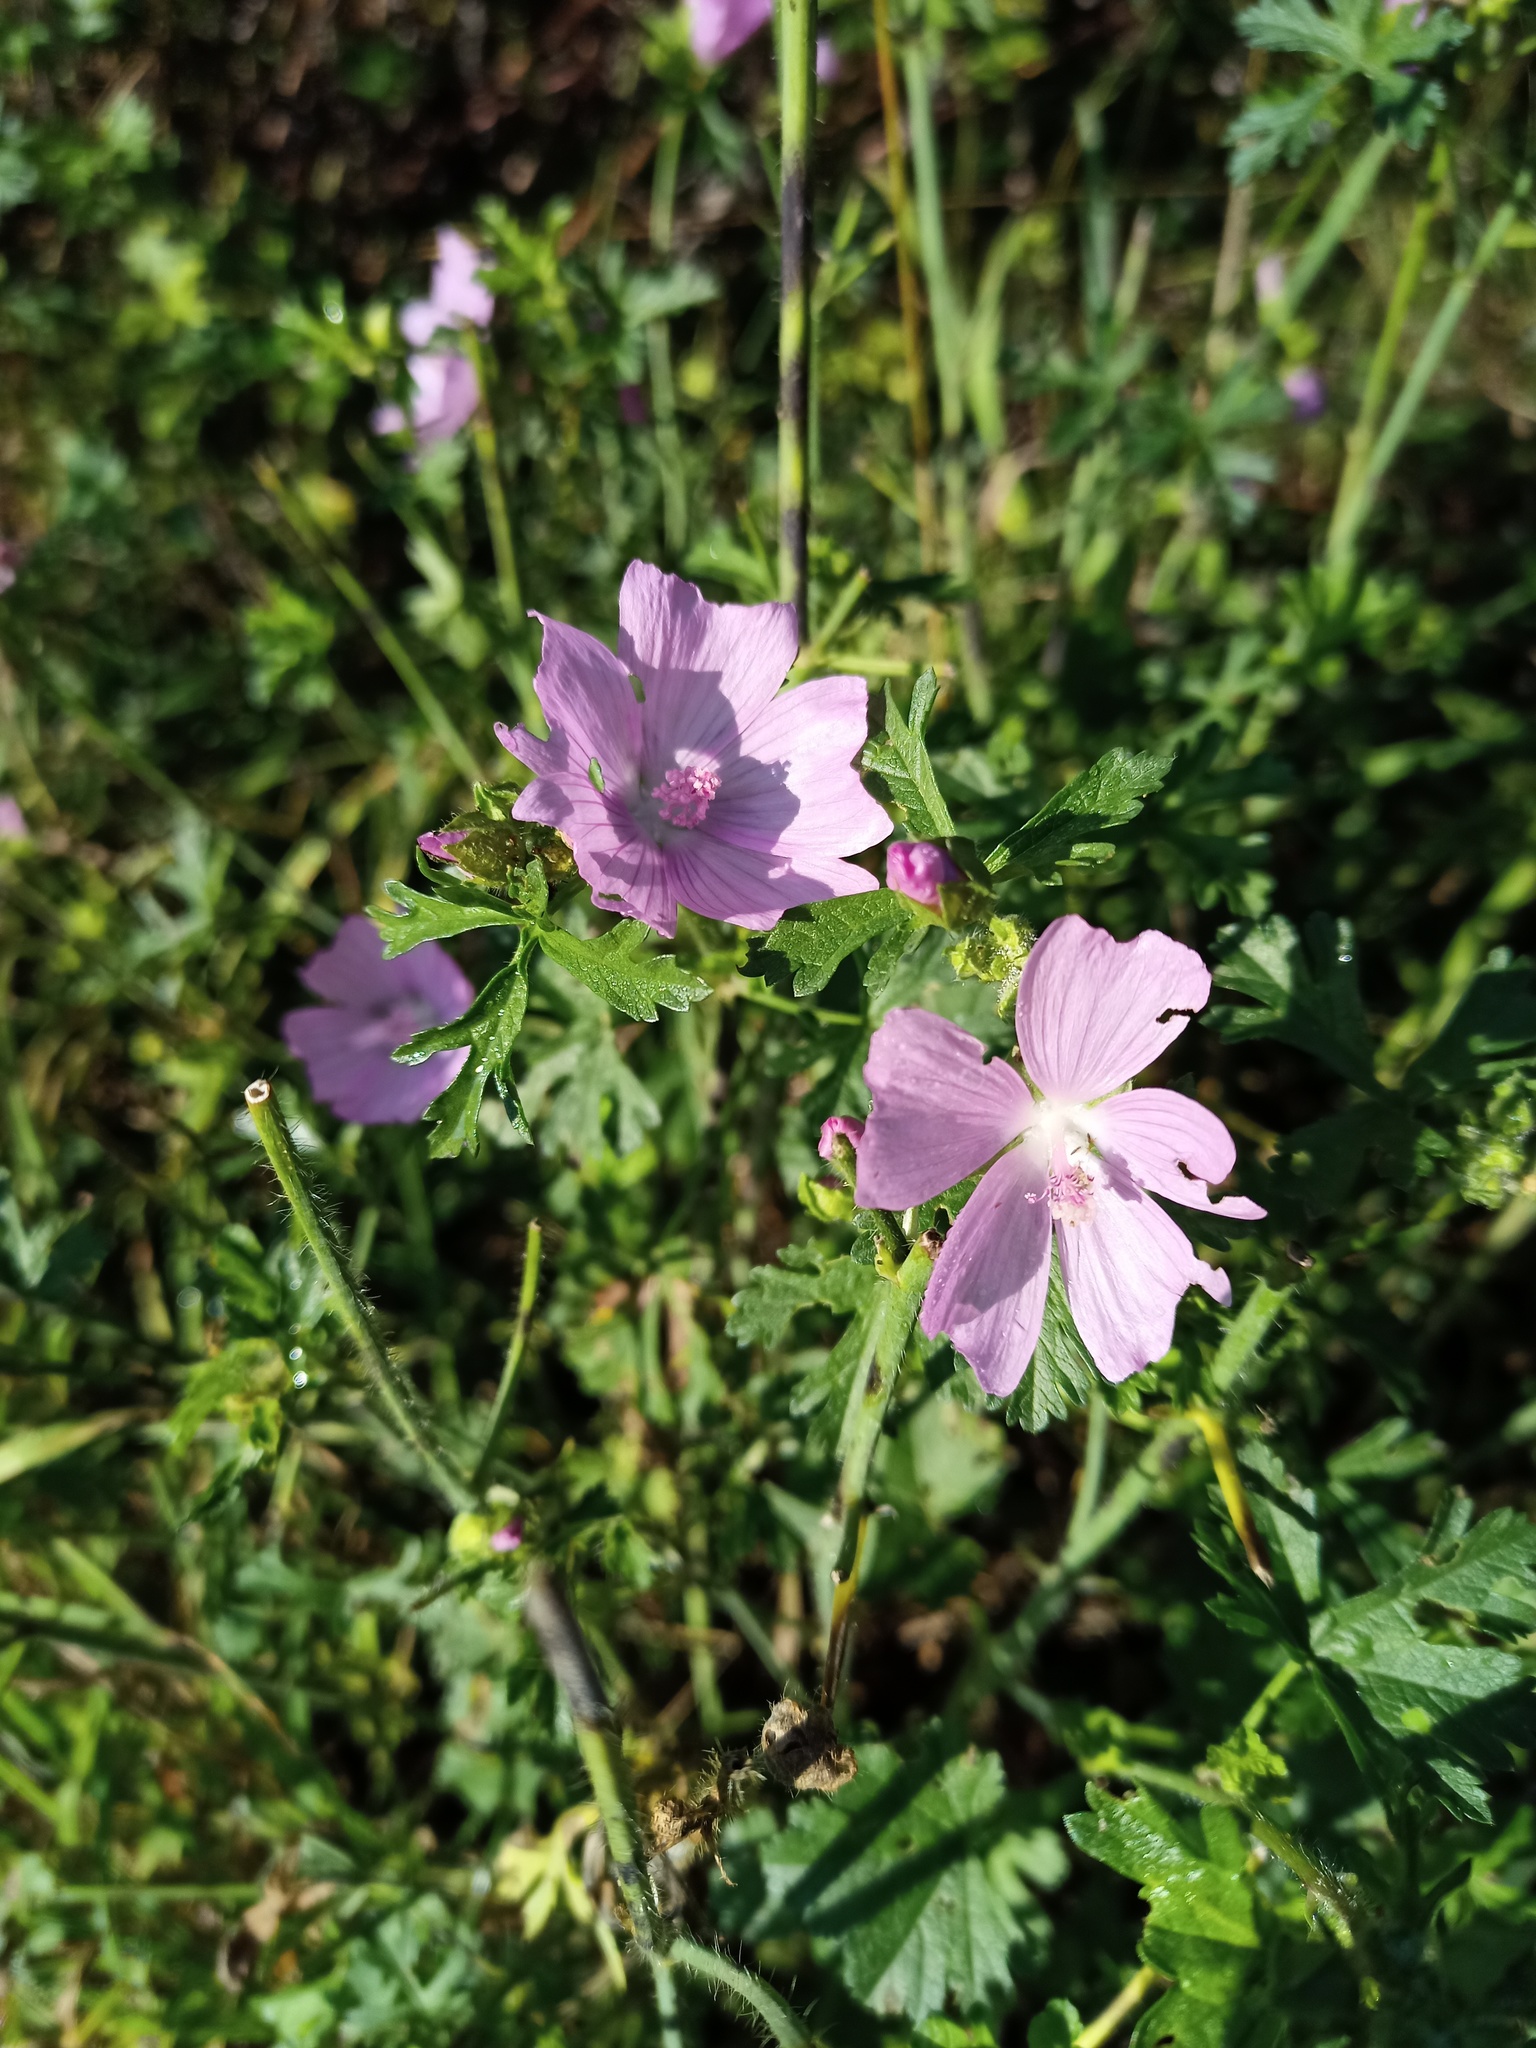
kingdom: Plantae
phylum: Tracheophyta
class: Magnoliopsida
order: Malvales
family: Malvaceae
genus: Malva
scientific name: Malva moschata
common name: Musk mallow
